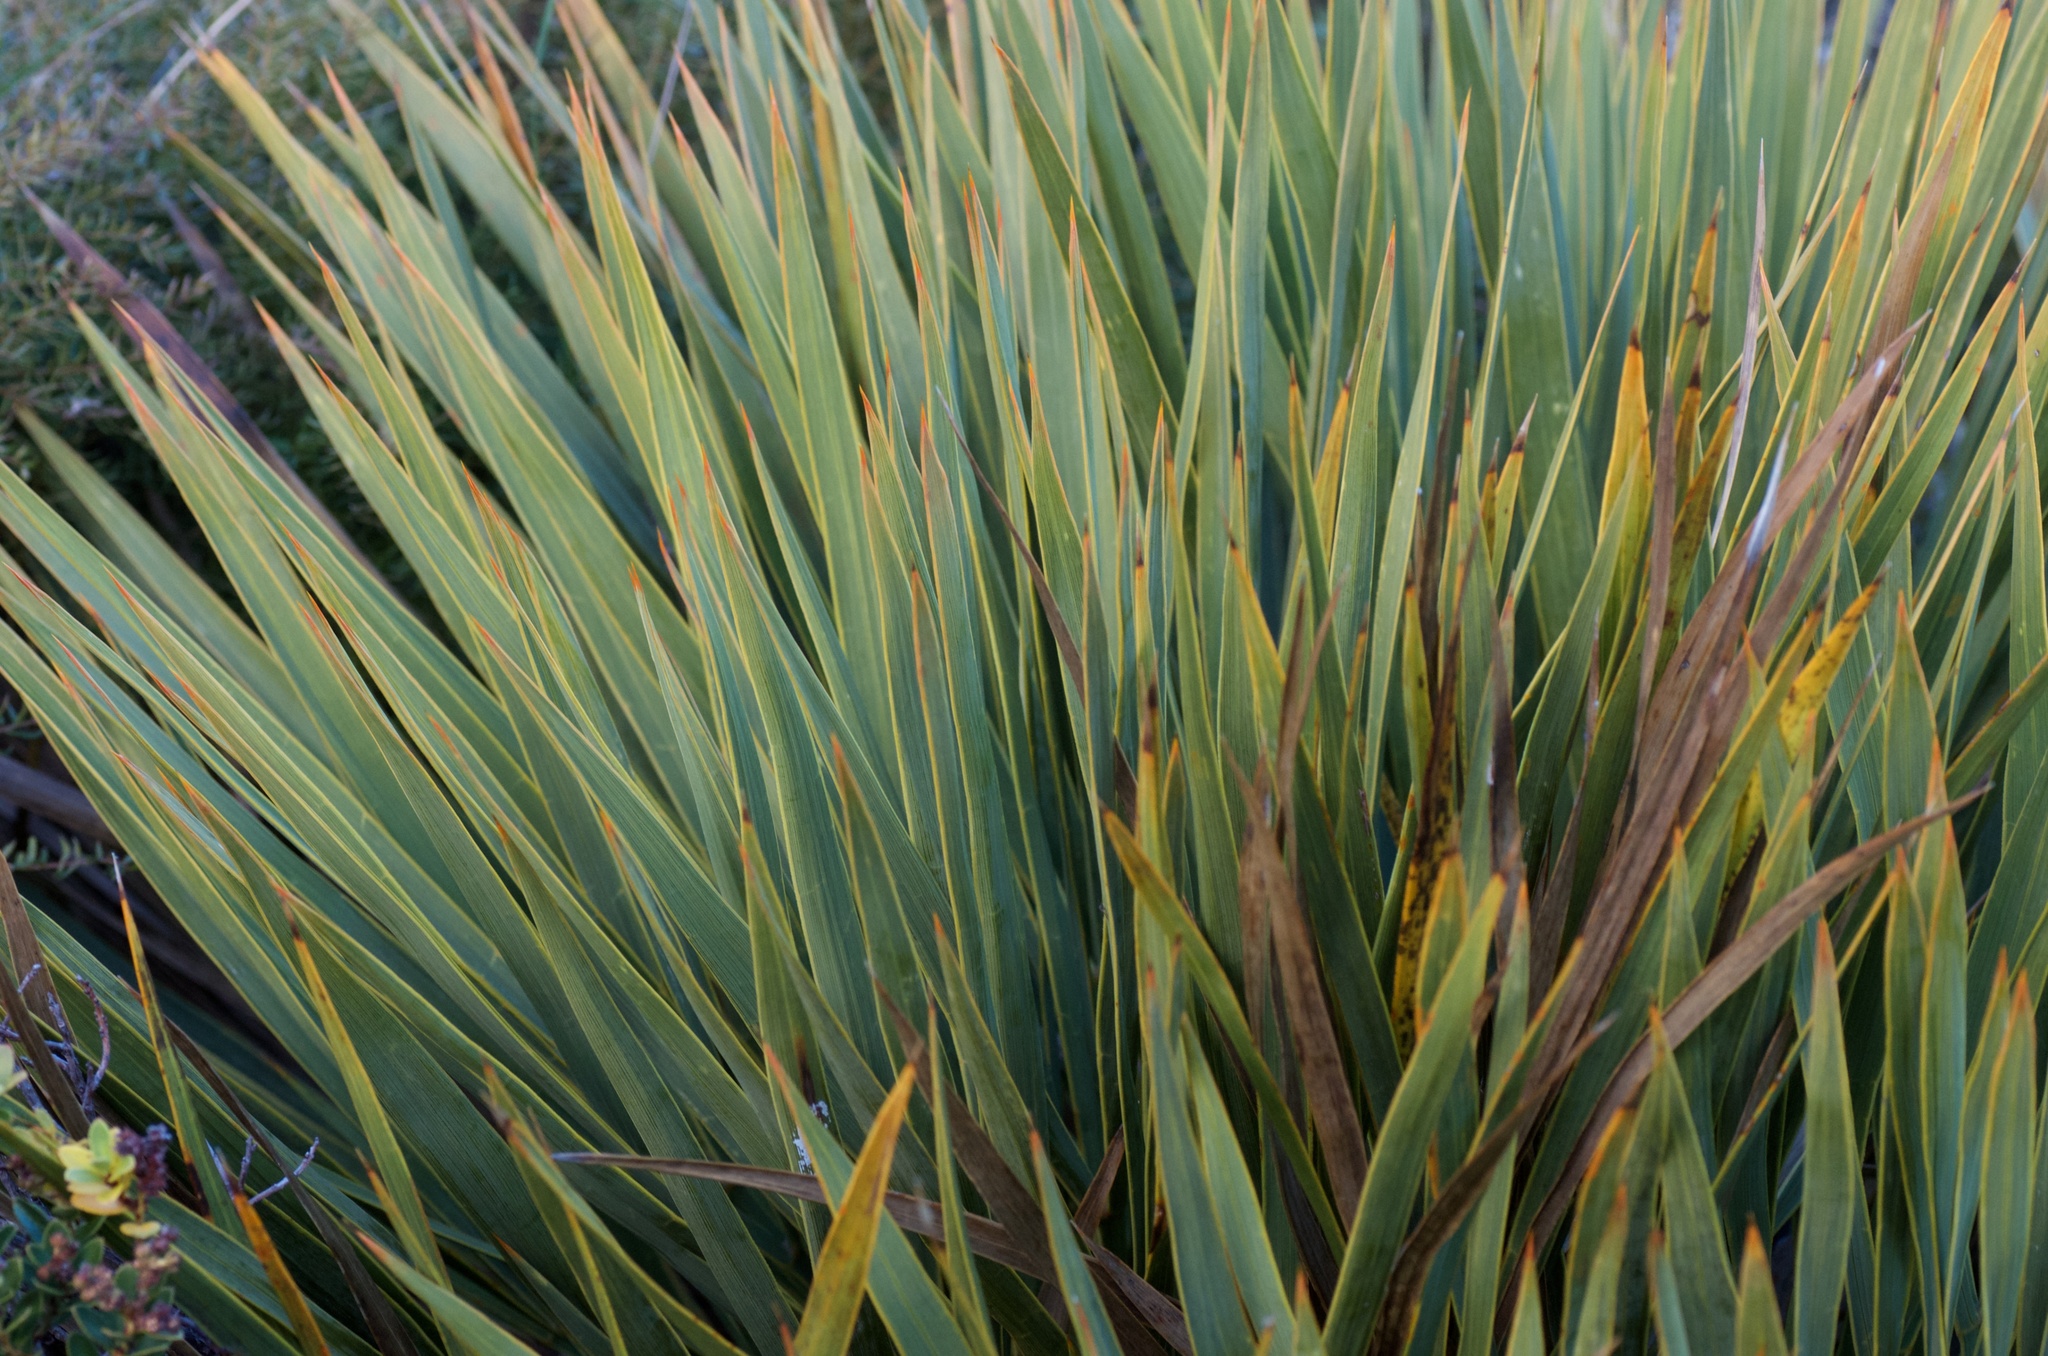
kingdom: Plantae
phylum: Tracheophyta
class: Magnoliopsida
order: Apiales
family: Apiaceae
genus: Aciphylla
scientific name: Aciphylla scott-thomsonii
